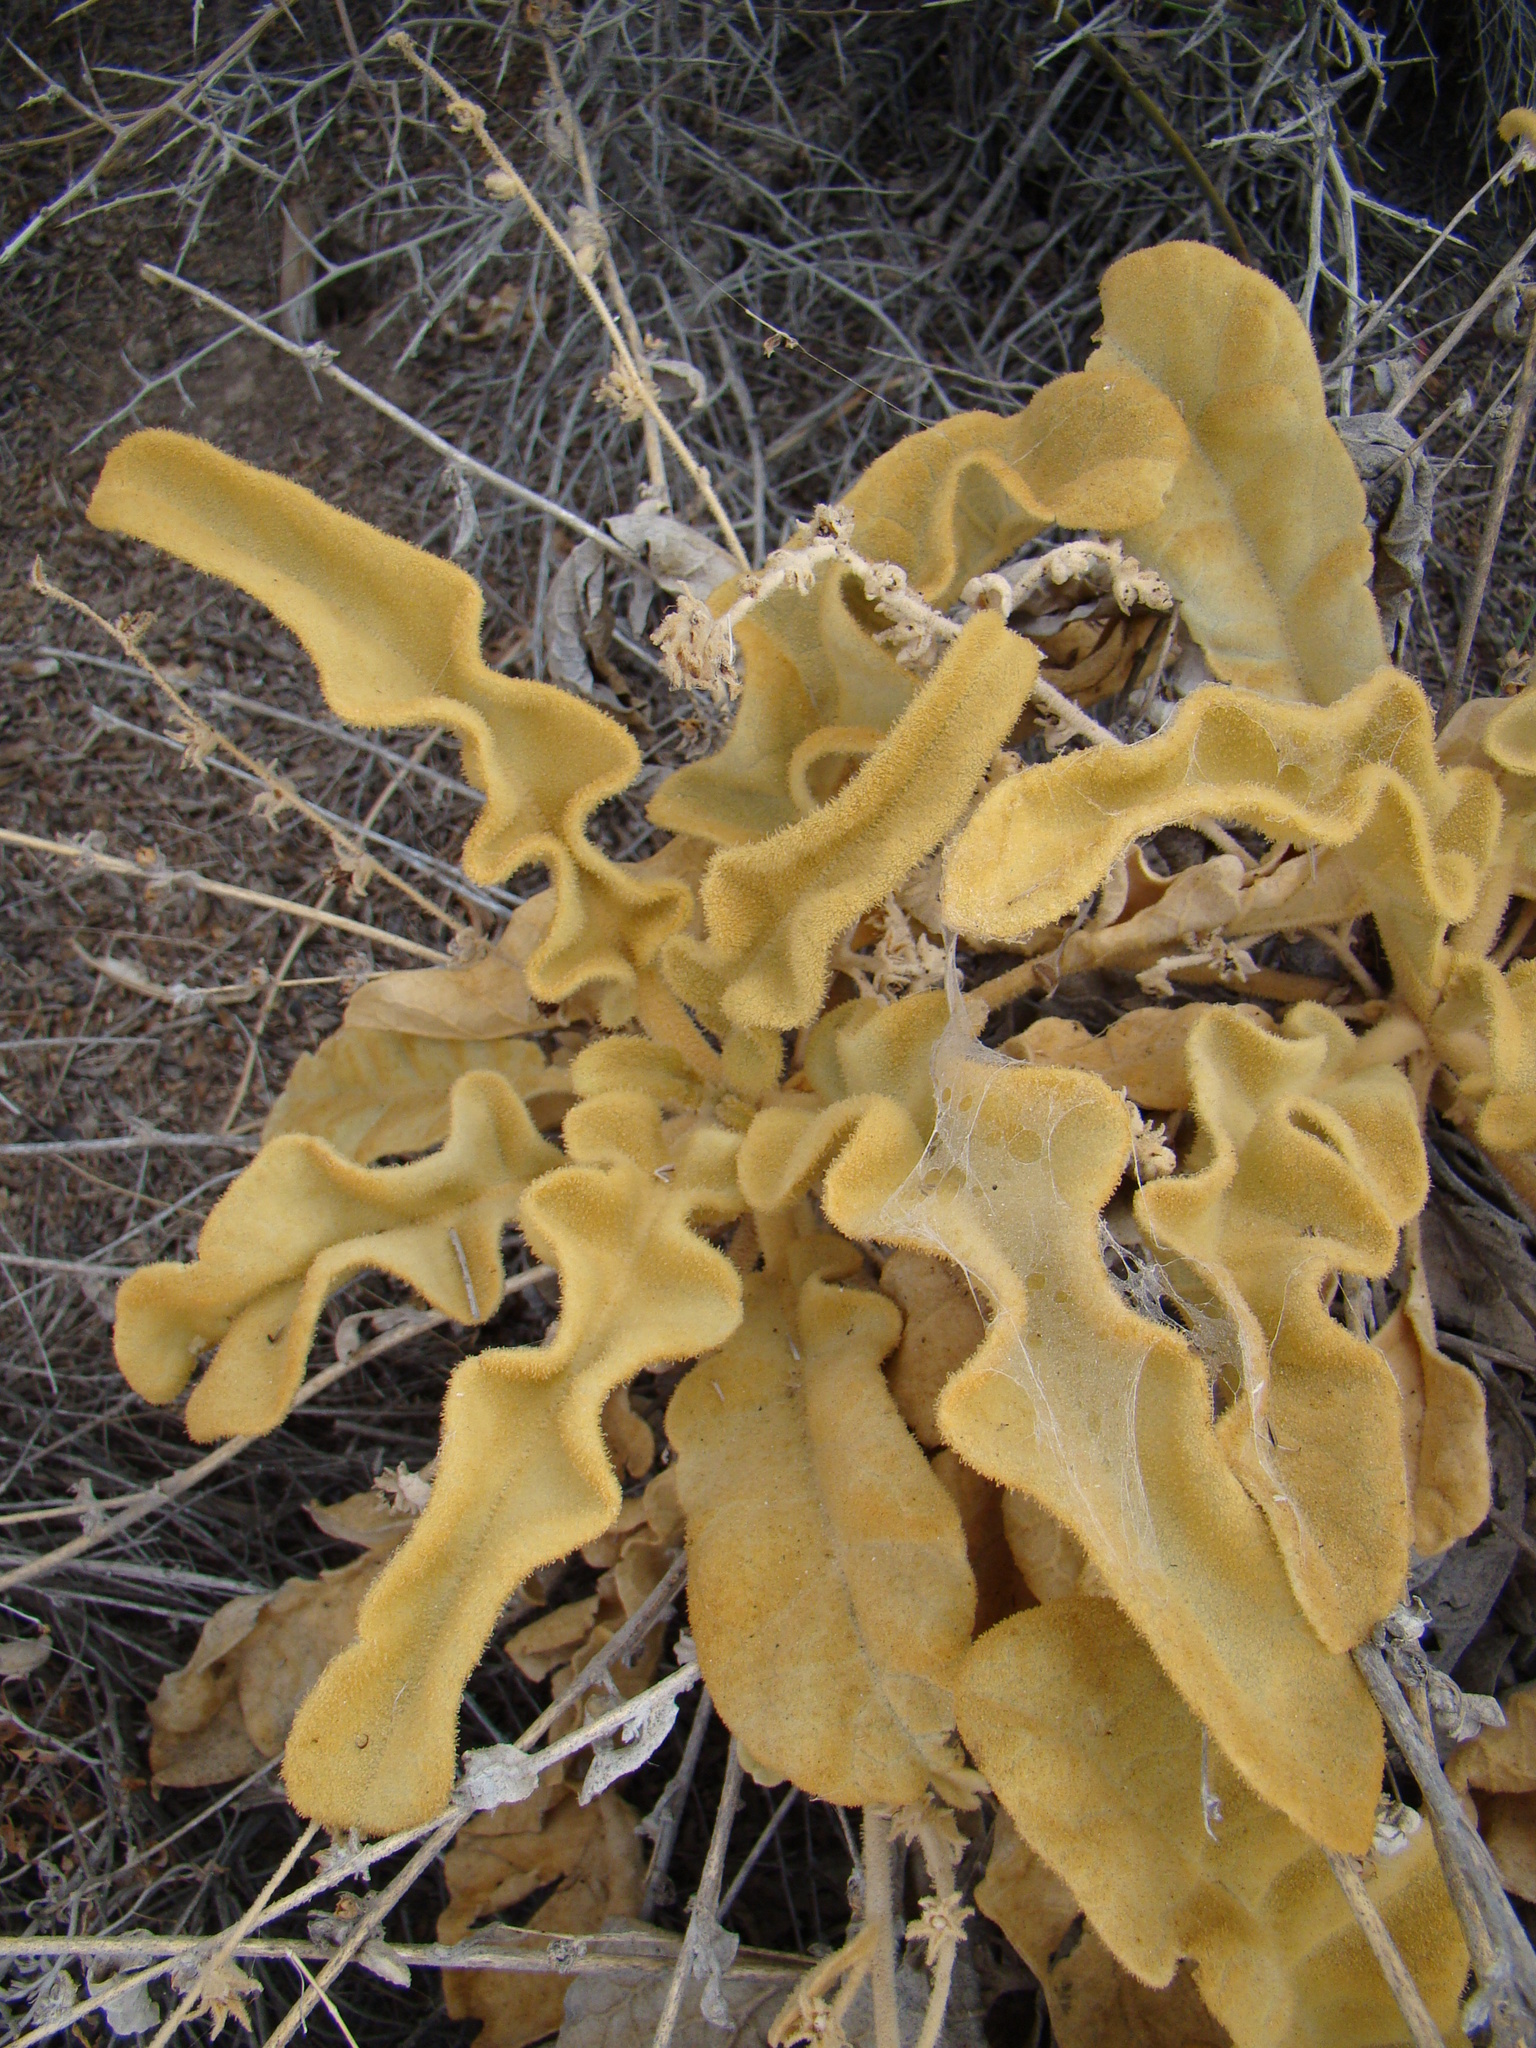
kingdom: Plantae
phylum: Tracheophyta
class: Magnoliopsida
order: Lamiales
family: Scrophulariaceae
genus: Verbascum
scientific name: Verbascum petrae
